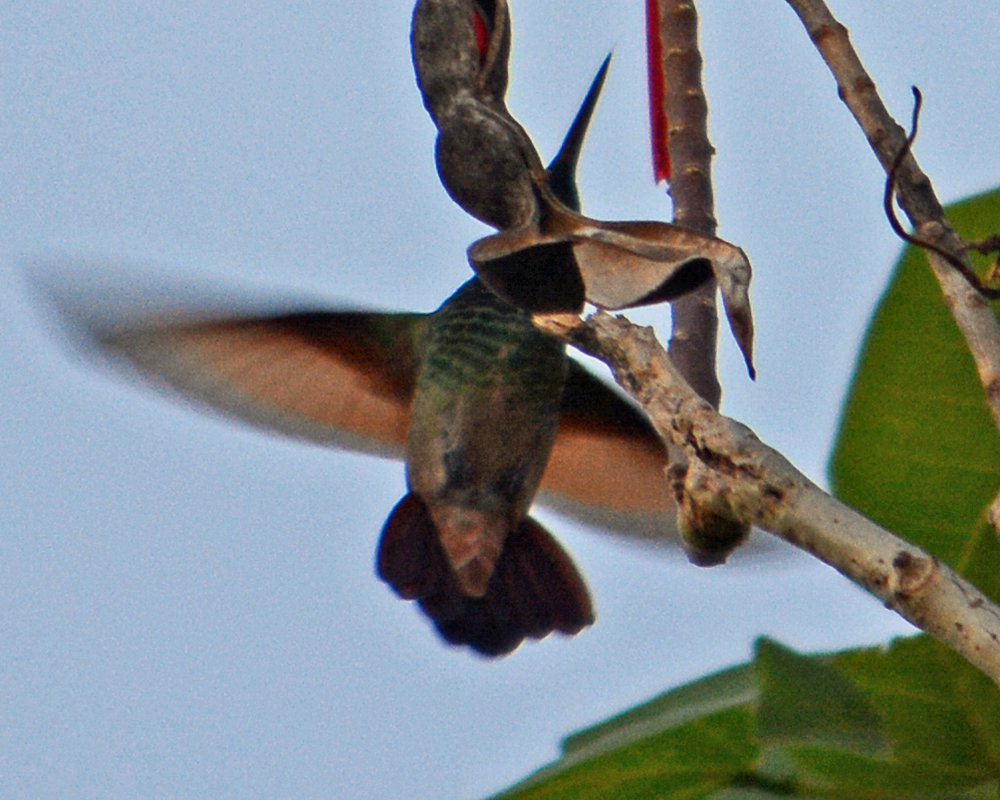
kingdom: Animalia
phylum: Chordata
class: Aves
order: Apodiformes
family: Trochilidae
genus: Saucerottia
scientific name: Saucerottia beryllina
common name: Berylline hummingbird
